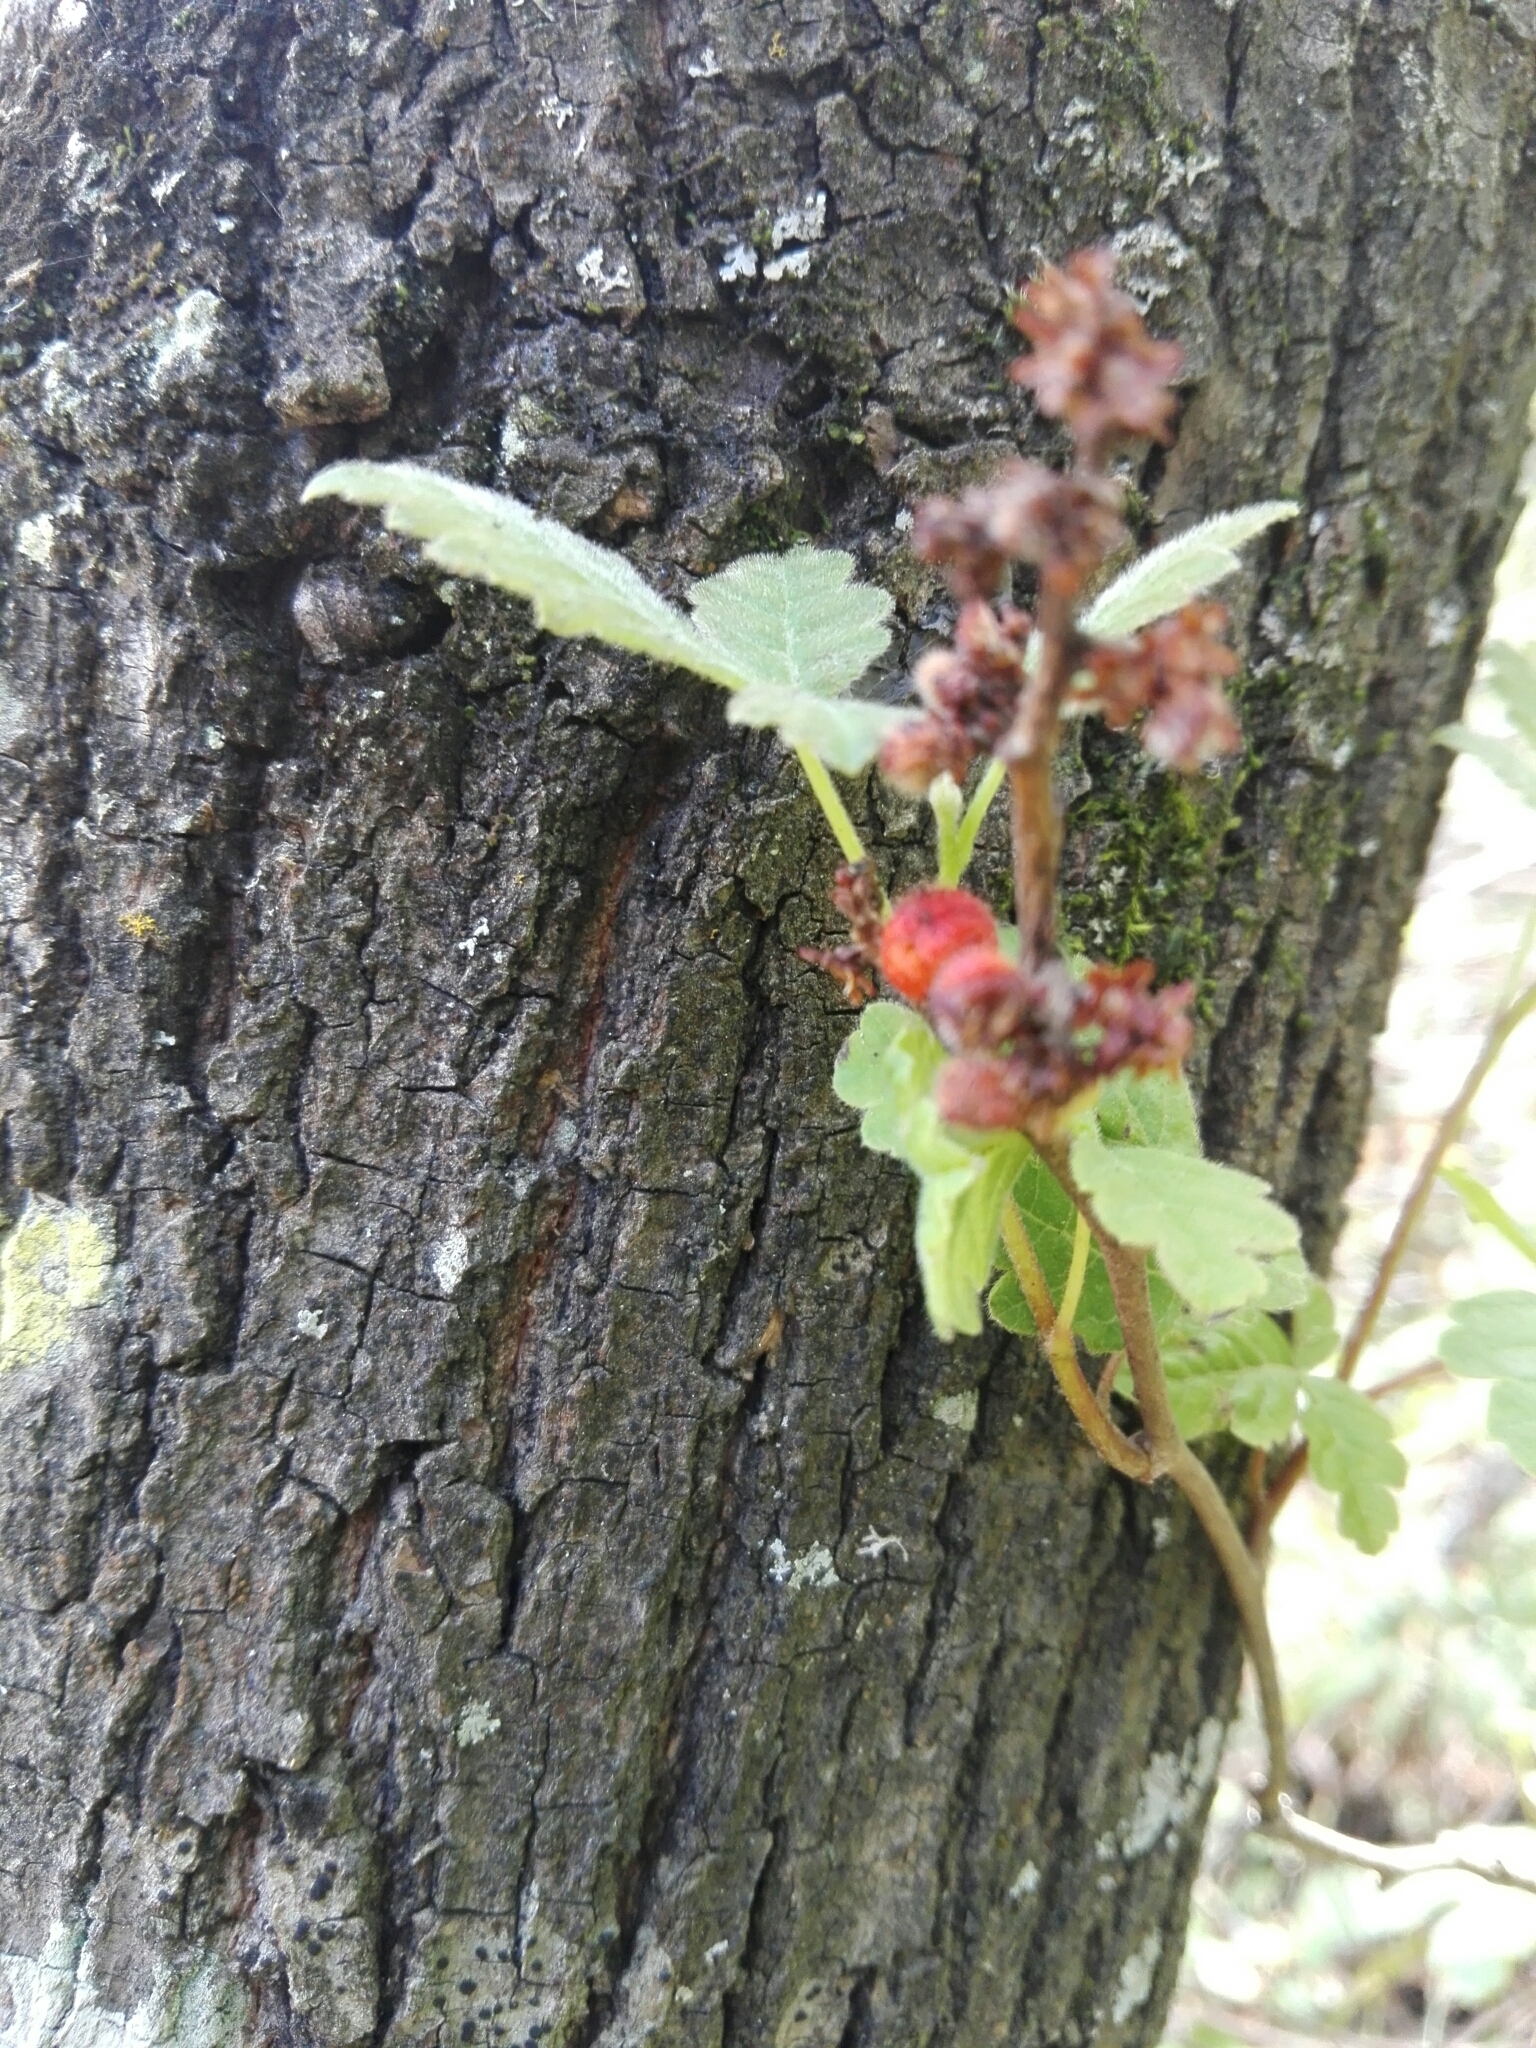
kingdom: Plantae
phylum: Tracheophyta
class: Magnoliopsida
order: Sapindales
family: Anacardiaceae
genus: Rhus
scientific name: Rhus aromatica
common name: Aromatic sumac
